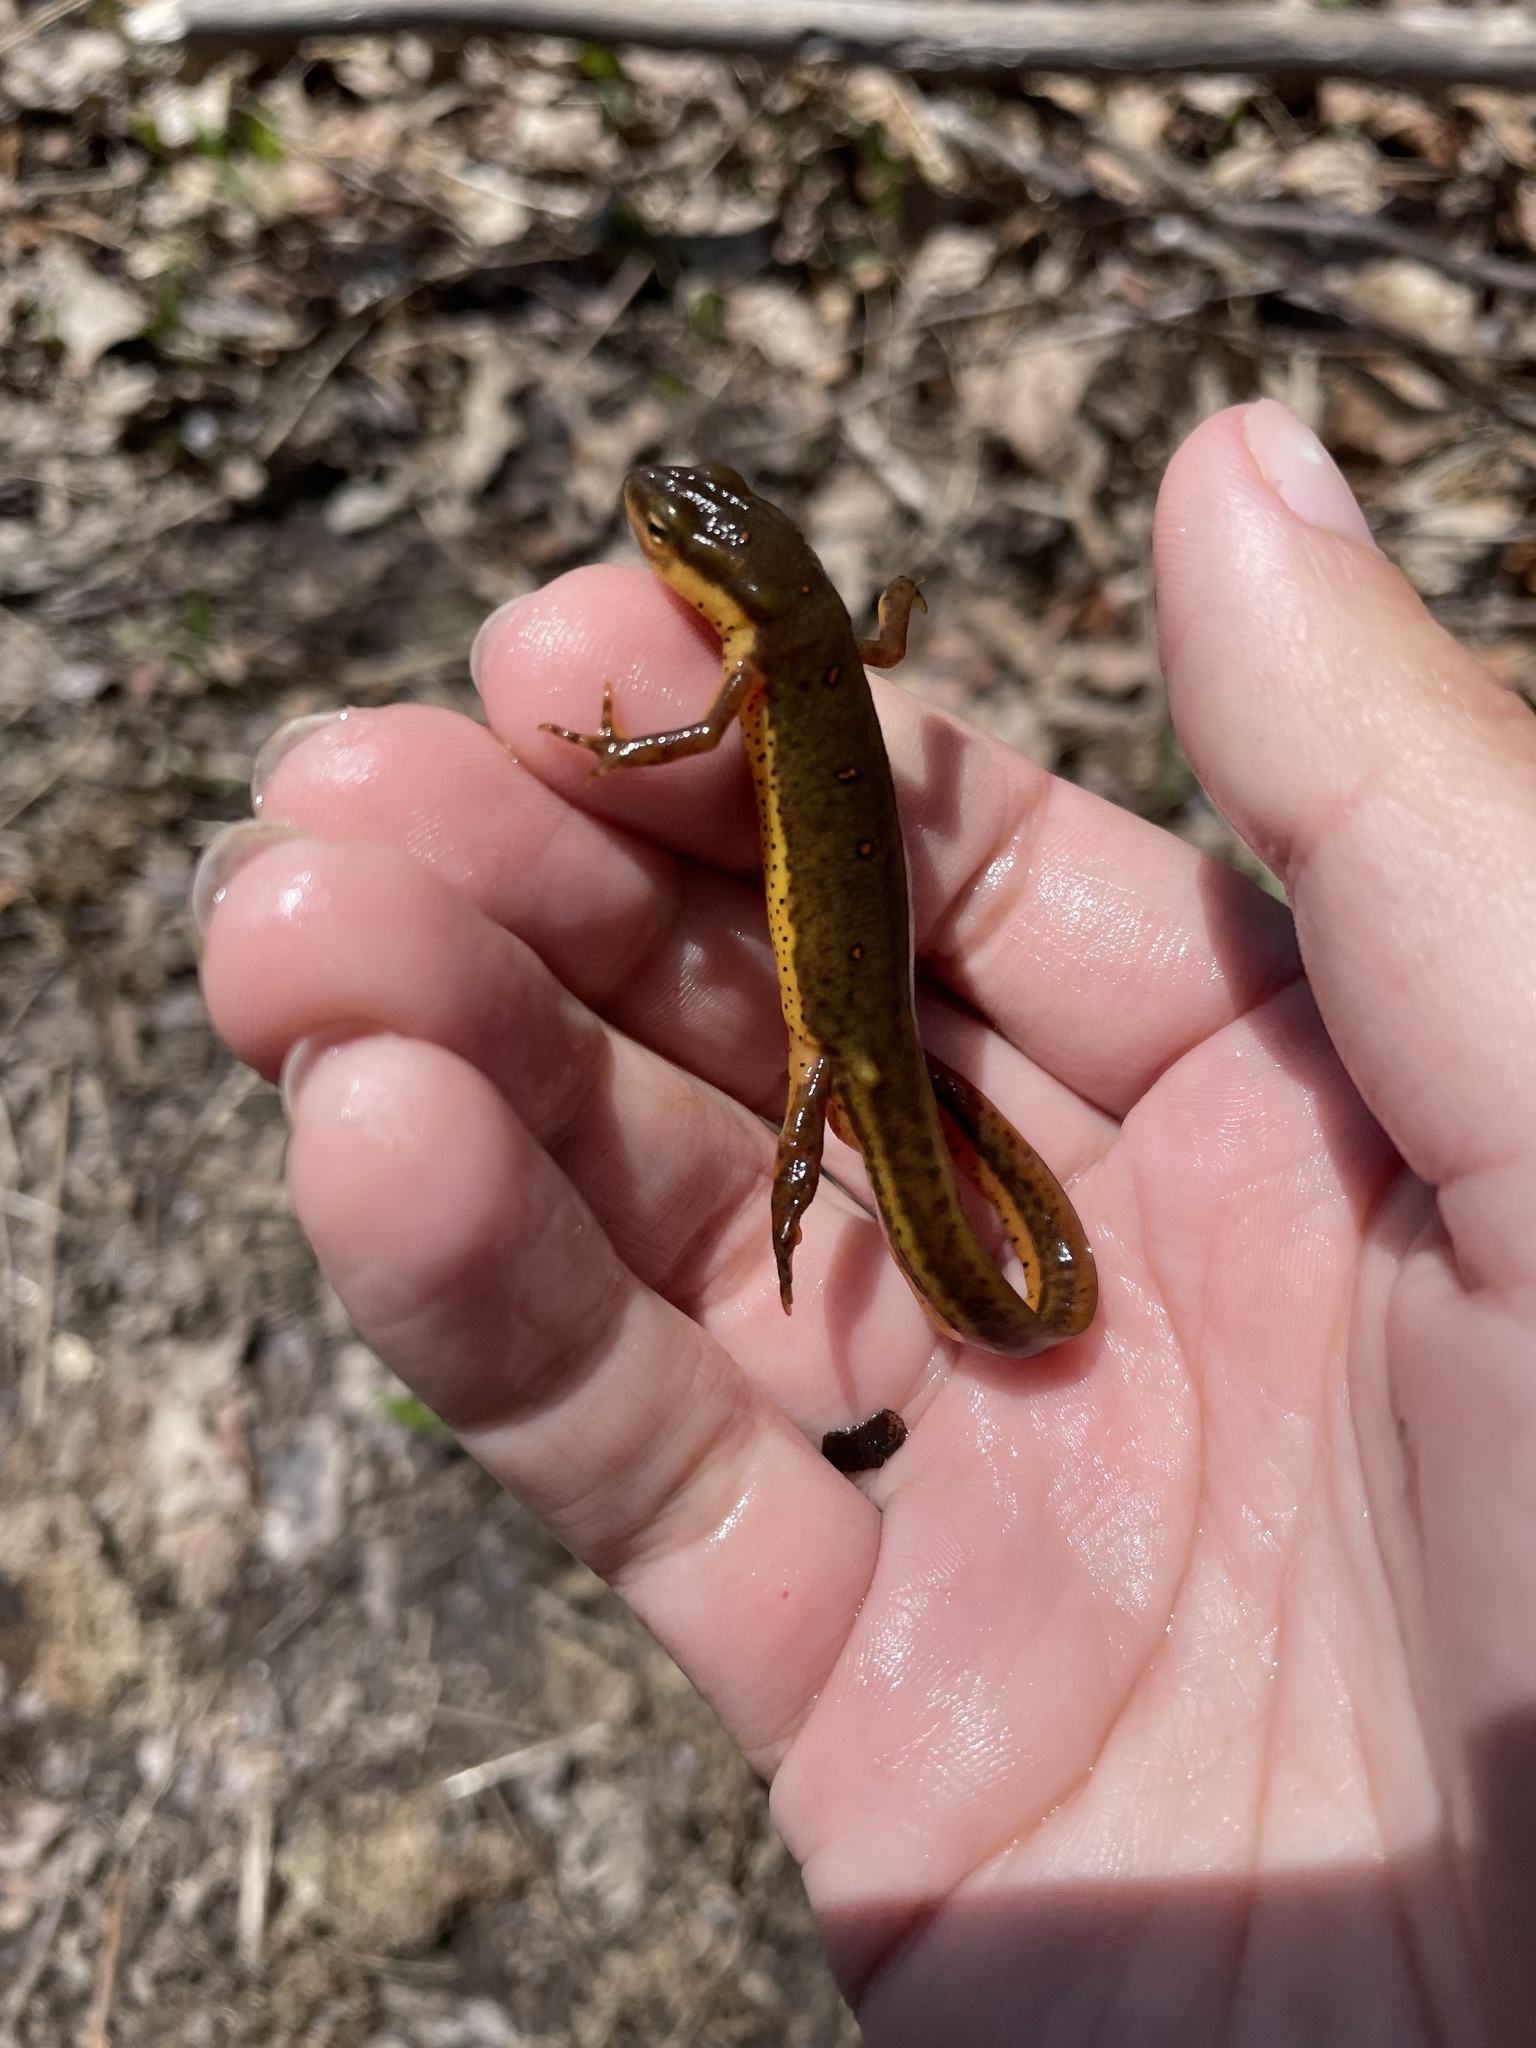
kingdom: Animalia
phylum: Chordata
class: Amphibia
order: Caudata
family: Salamandridae
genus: Notophthalmus
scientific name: Notophthalmus viridescens
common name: Eastern newt
